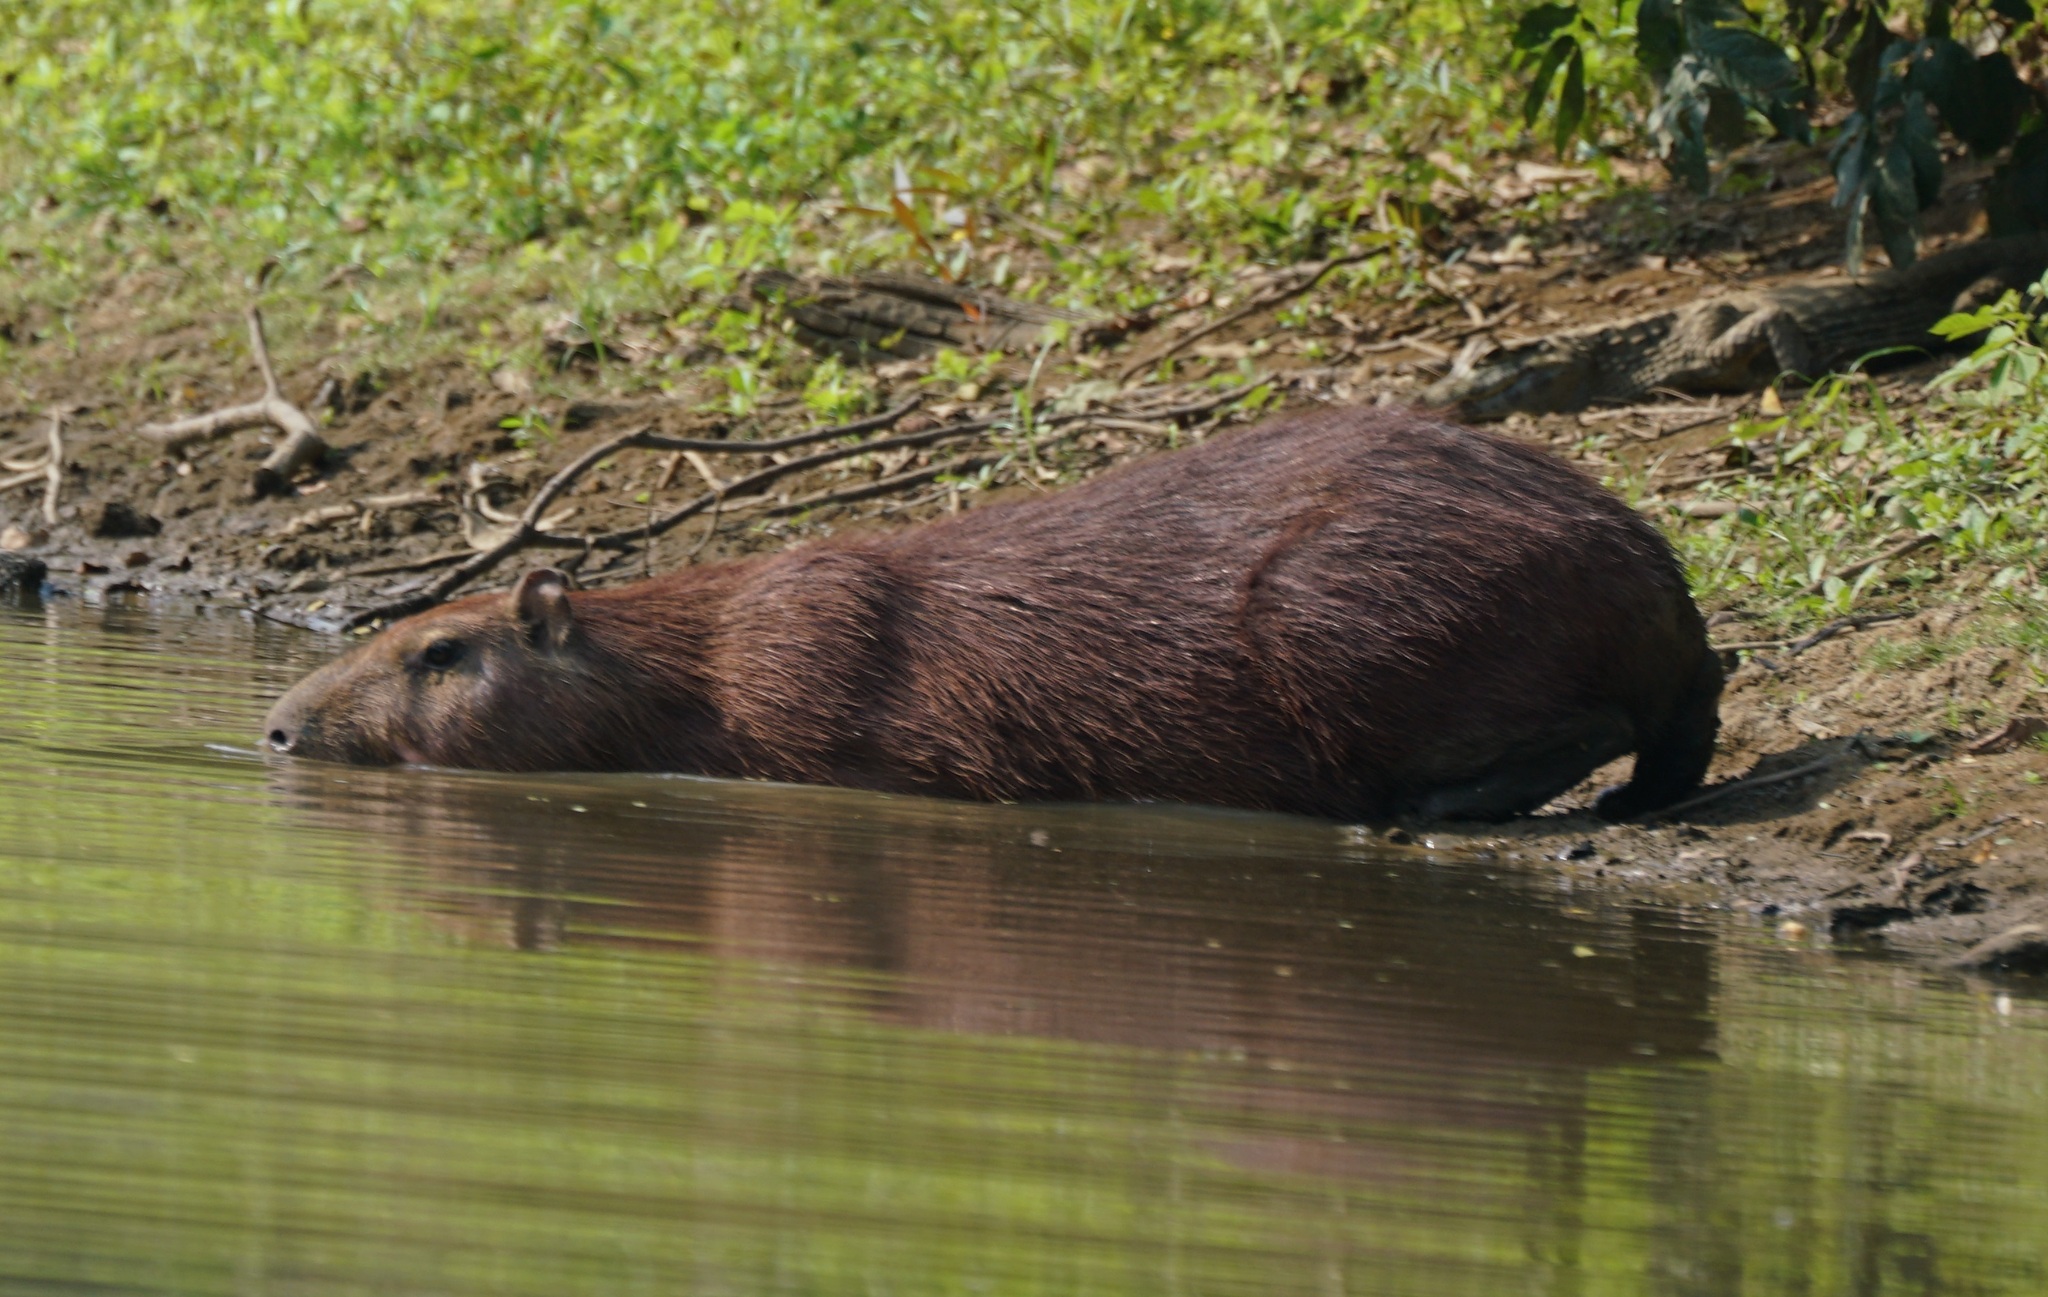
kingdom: Animalia
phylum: Chordata
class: Mammalia
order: Rodentia
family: Caviidae
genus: Hydrochoerus
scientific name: Hydrochoerus hydrochaeris
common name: Capybara
